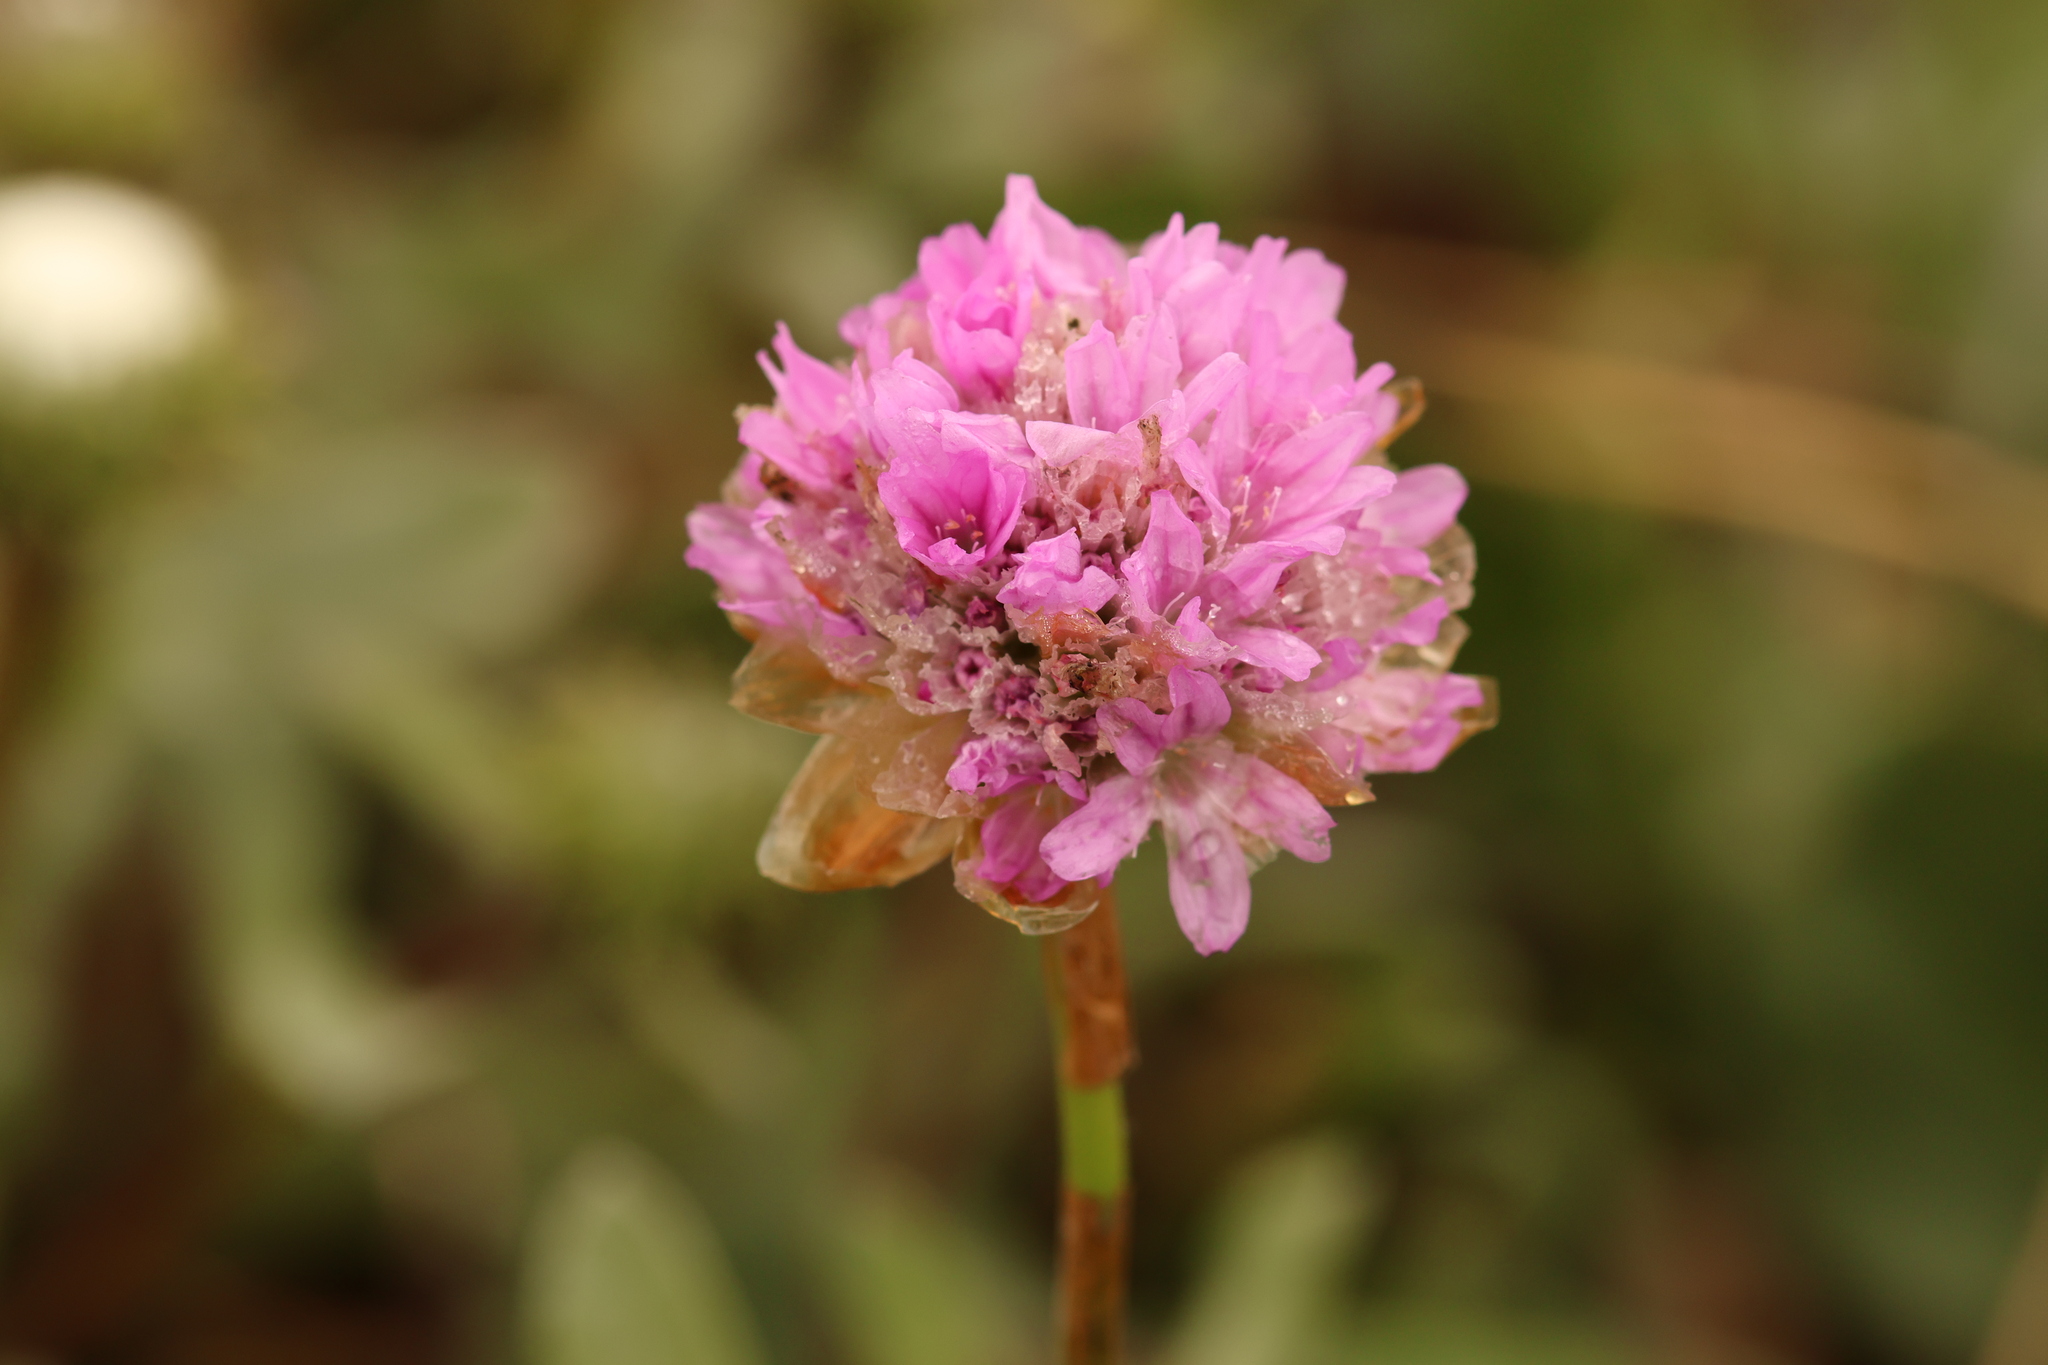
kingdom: Plantae
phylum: Tracheophyta
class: Magnoliopsida
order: Caryophyllales
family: Plumbaginaceae
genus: Armeria
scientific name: Armeria maritima
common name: Thrift
